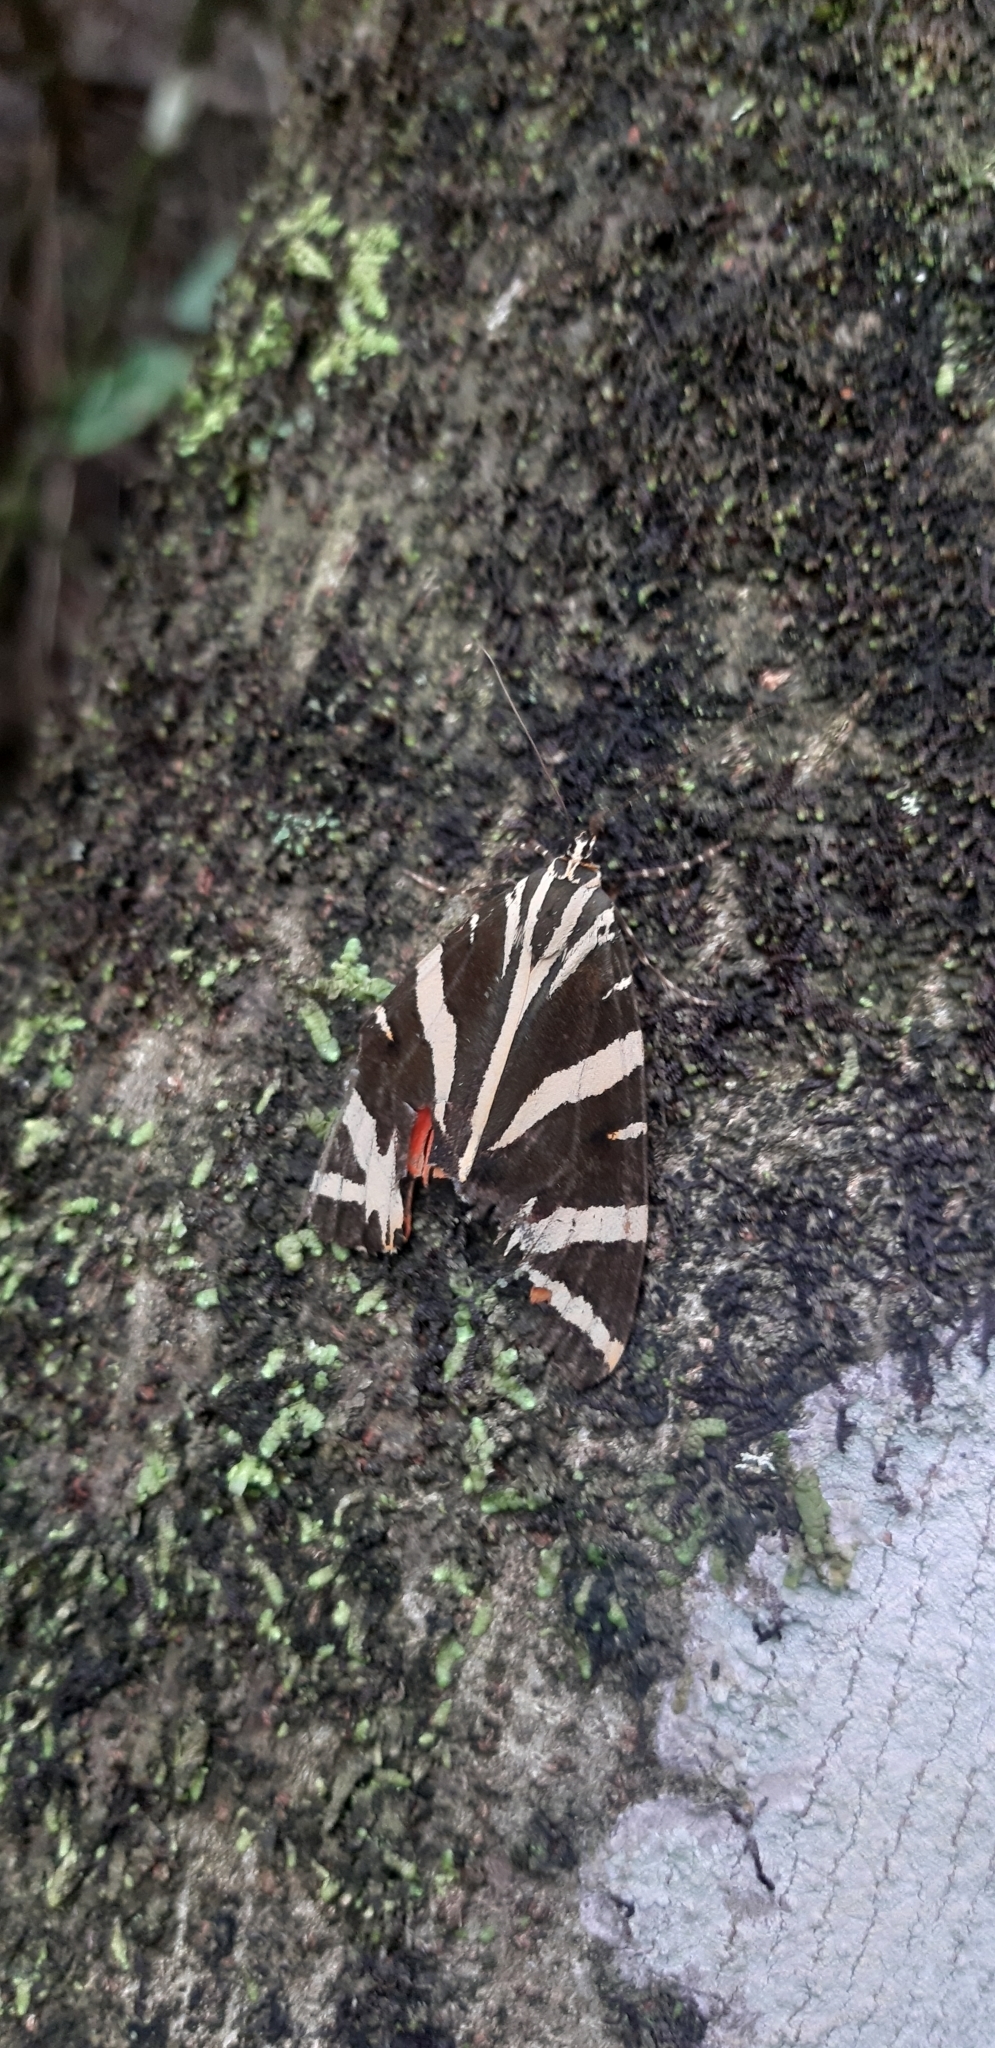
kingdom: Animalia
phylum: Arthropoda
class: Insecta
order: Lepidoptera
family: Erebidae
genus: Euplagia
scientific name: Euplagia quadripunctaria
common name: Jersey tiger
